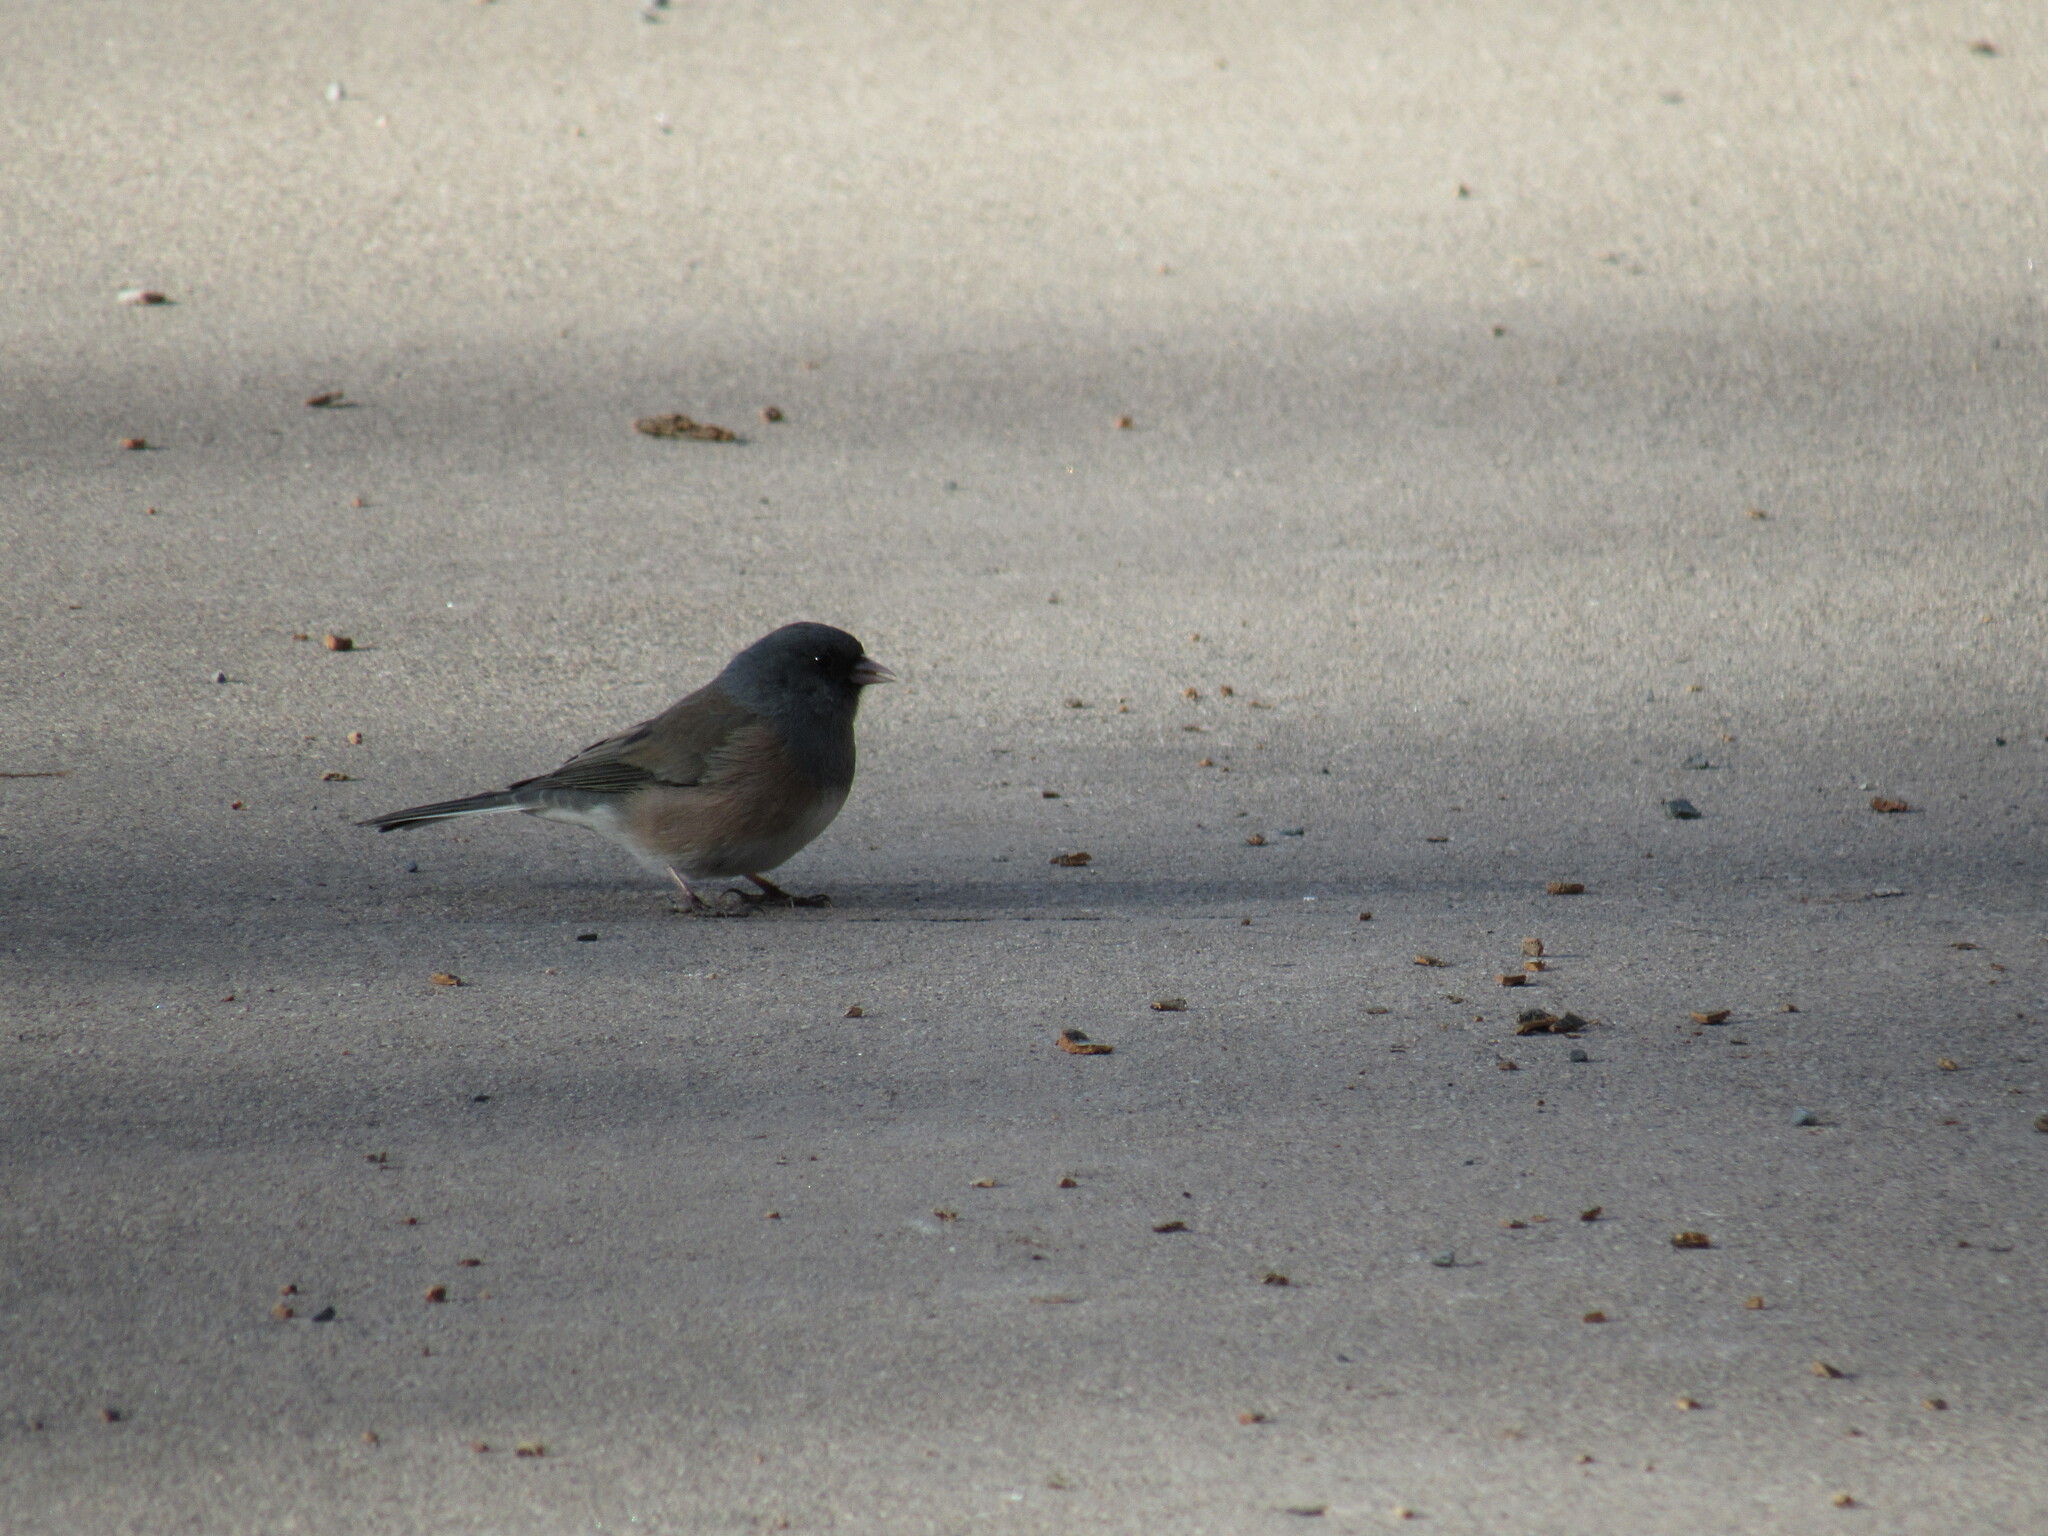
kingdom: Animalia
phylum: Chordata
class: Aves
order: Passeriformes
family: Passerellidae
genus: Junco
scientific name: Junco hyemalis
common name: Dark-eyed junco
